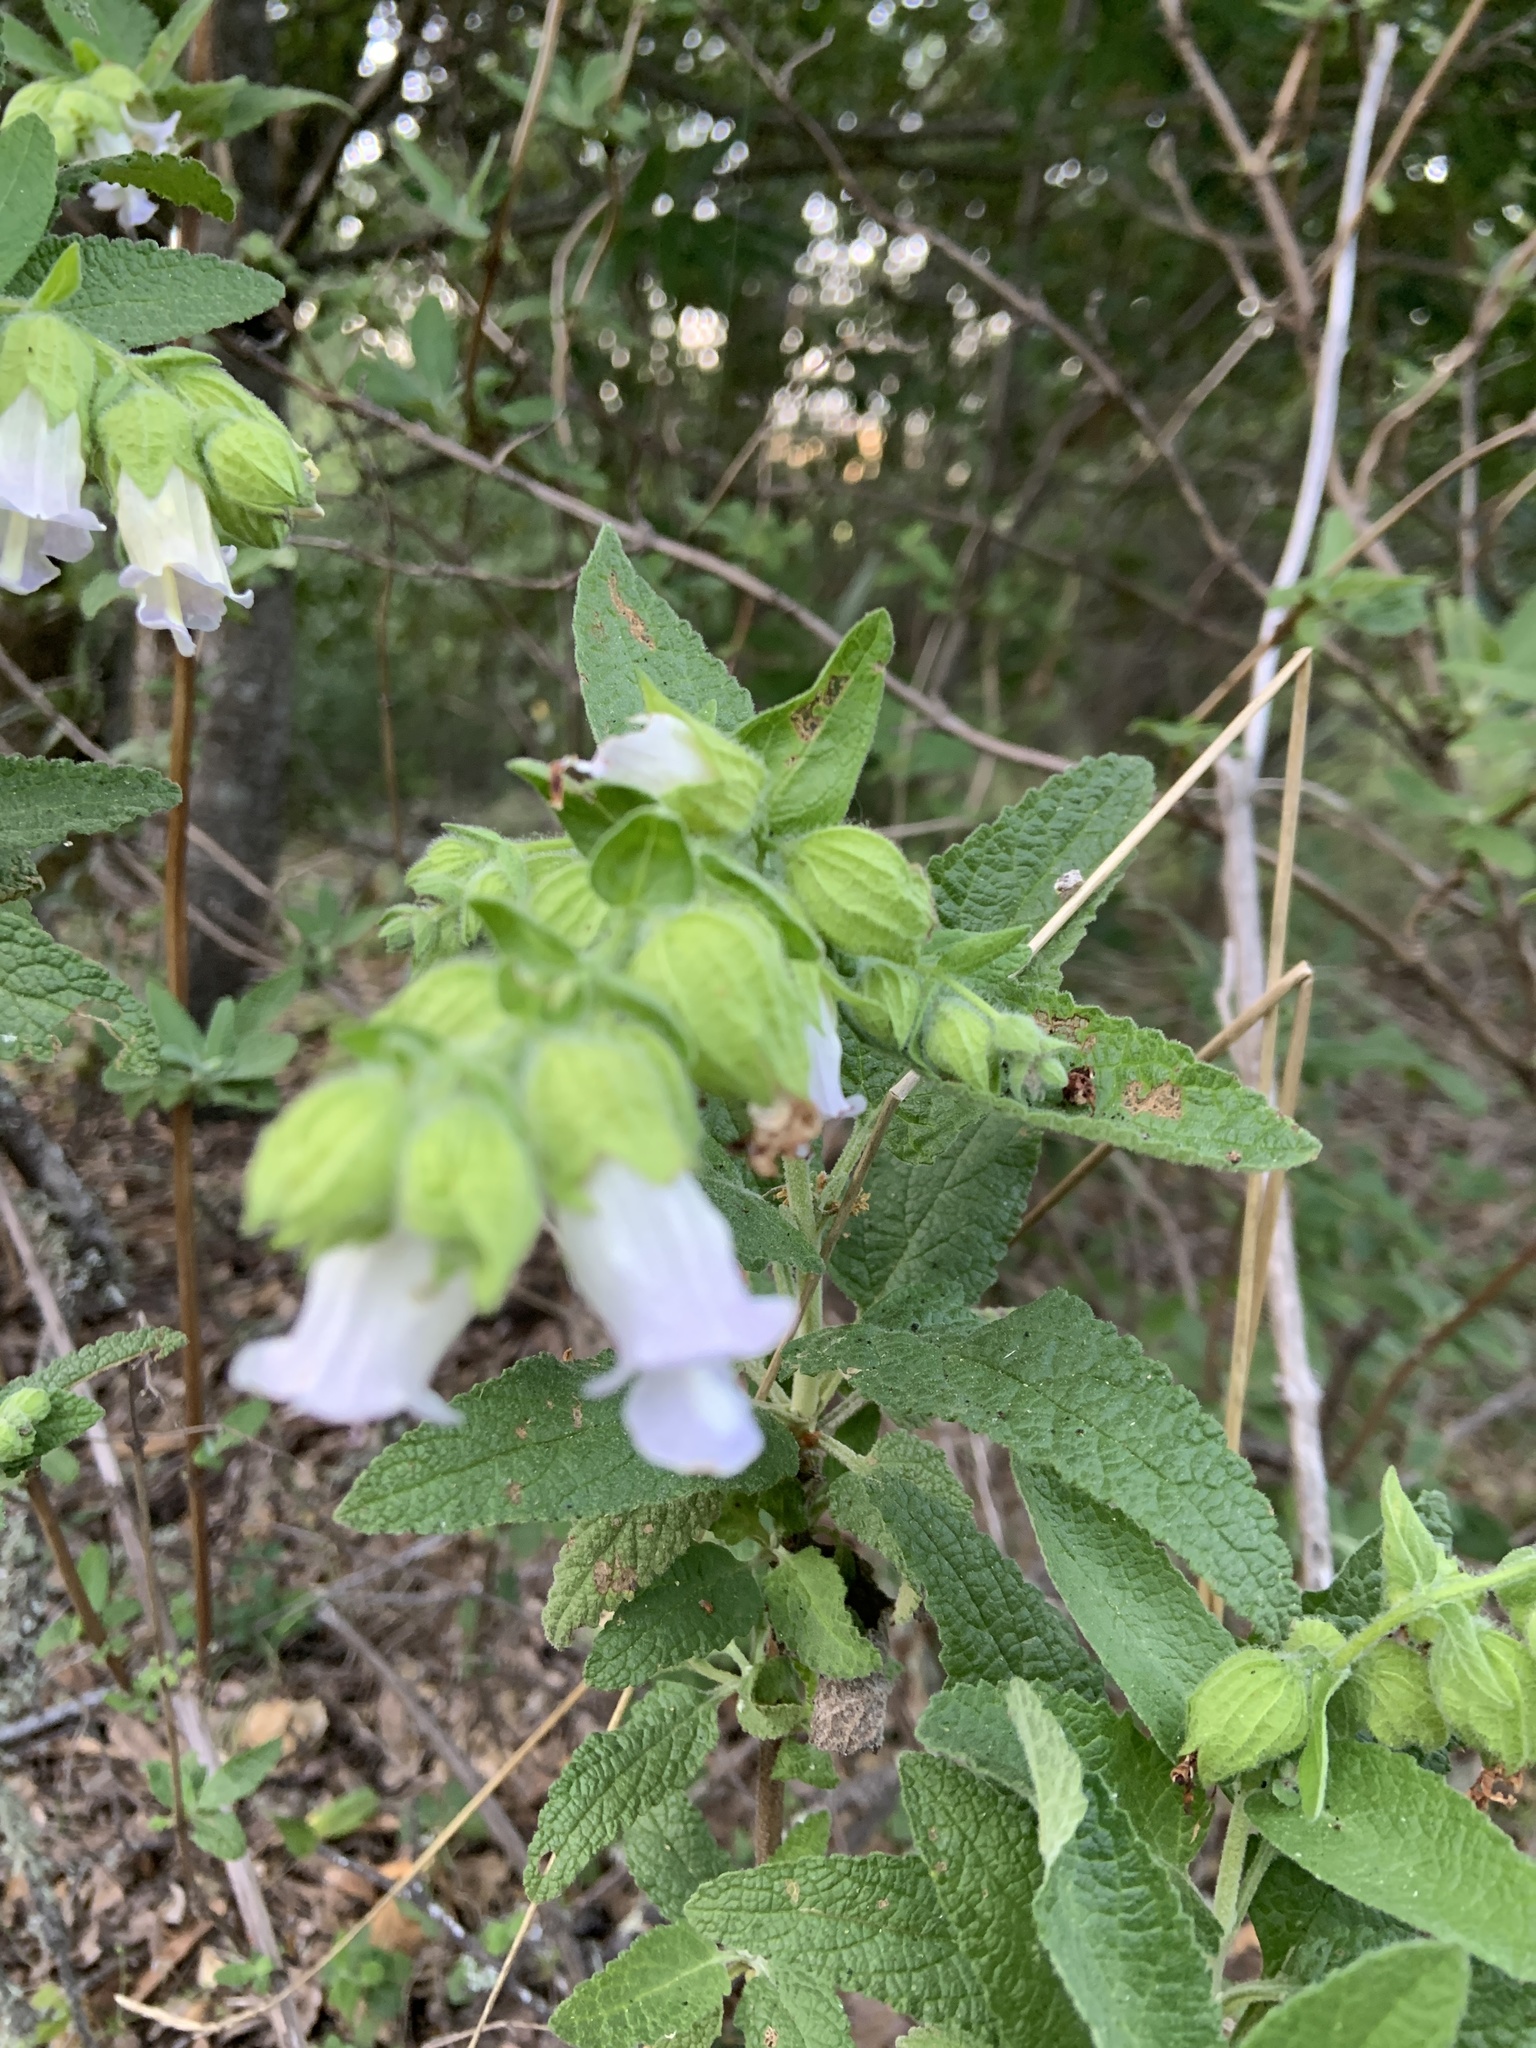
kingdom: Plantae
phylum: Tracheophyta
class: Magnoliopsida
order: Lamiales
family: Lamiaceae
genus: Lepechinia
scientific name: Lepechinia calycina
